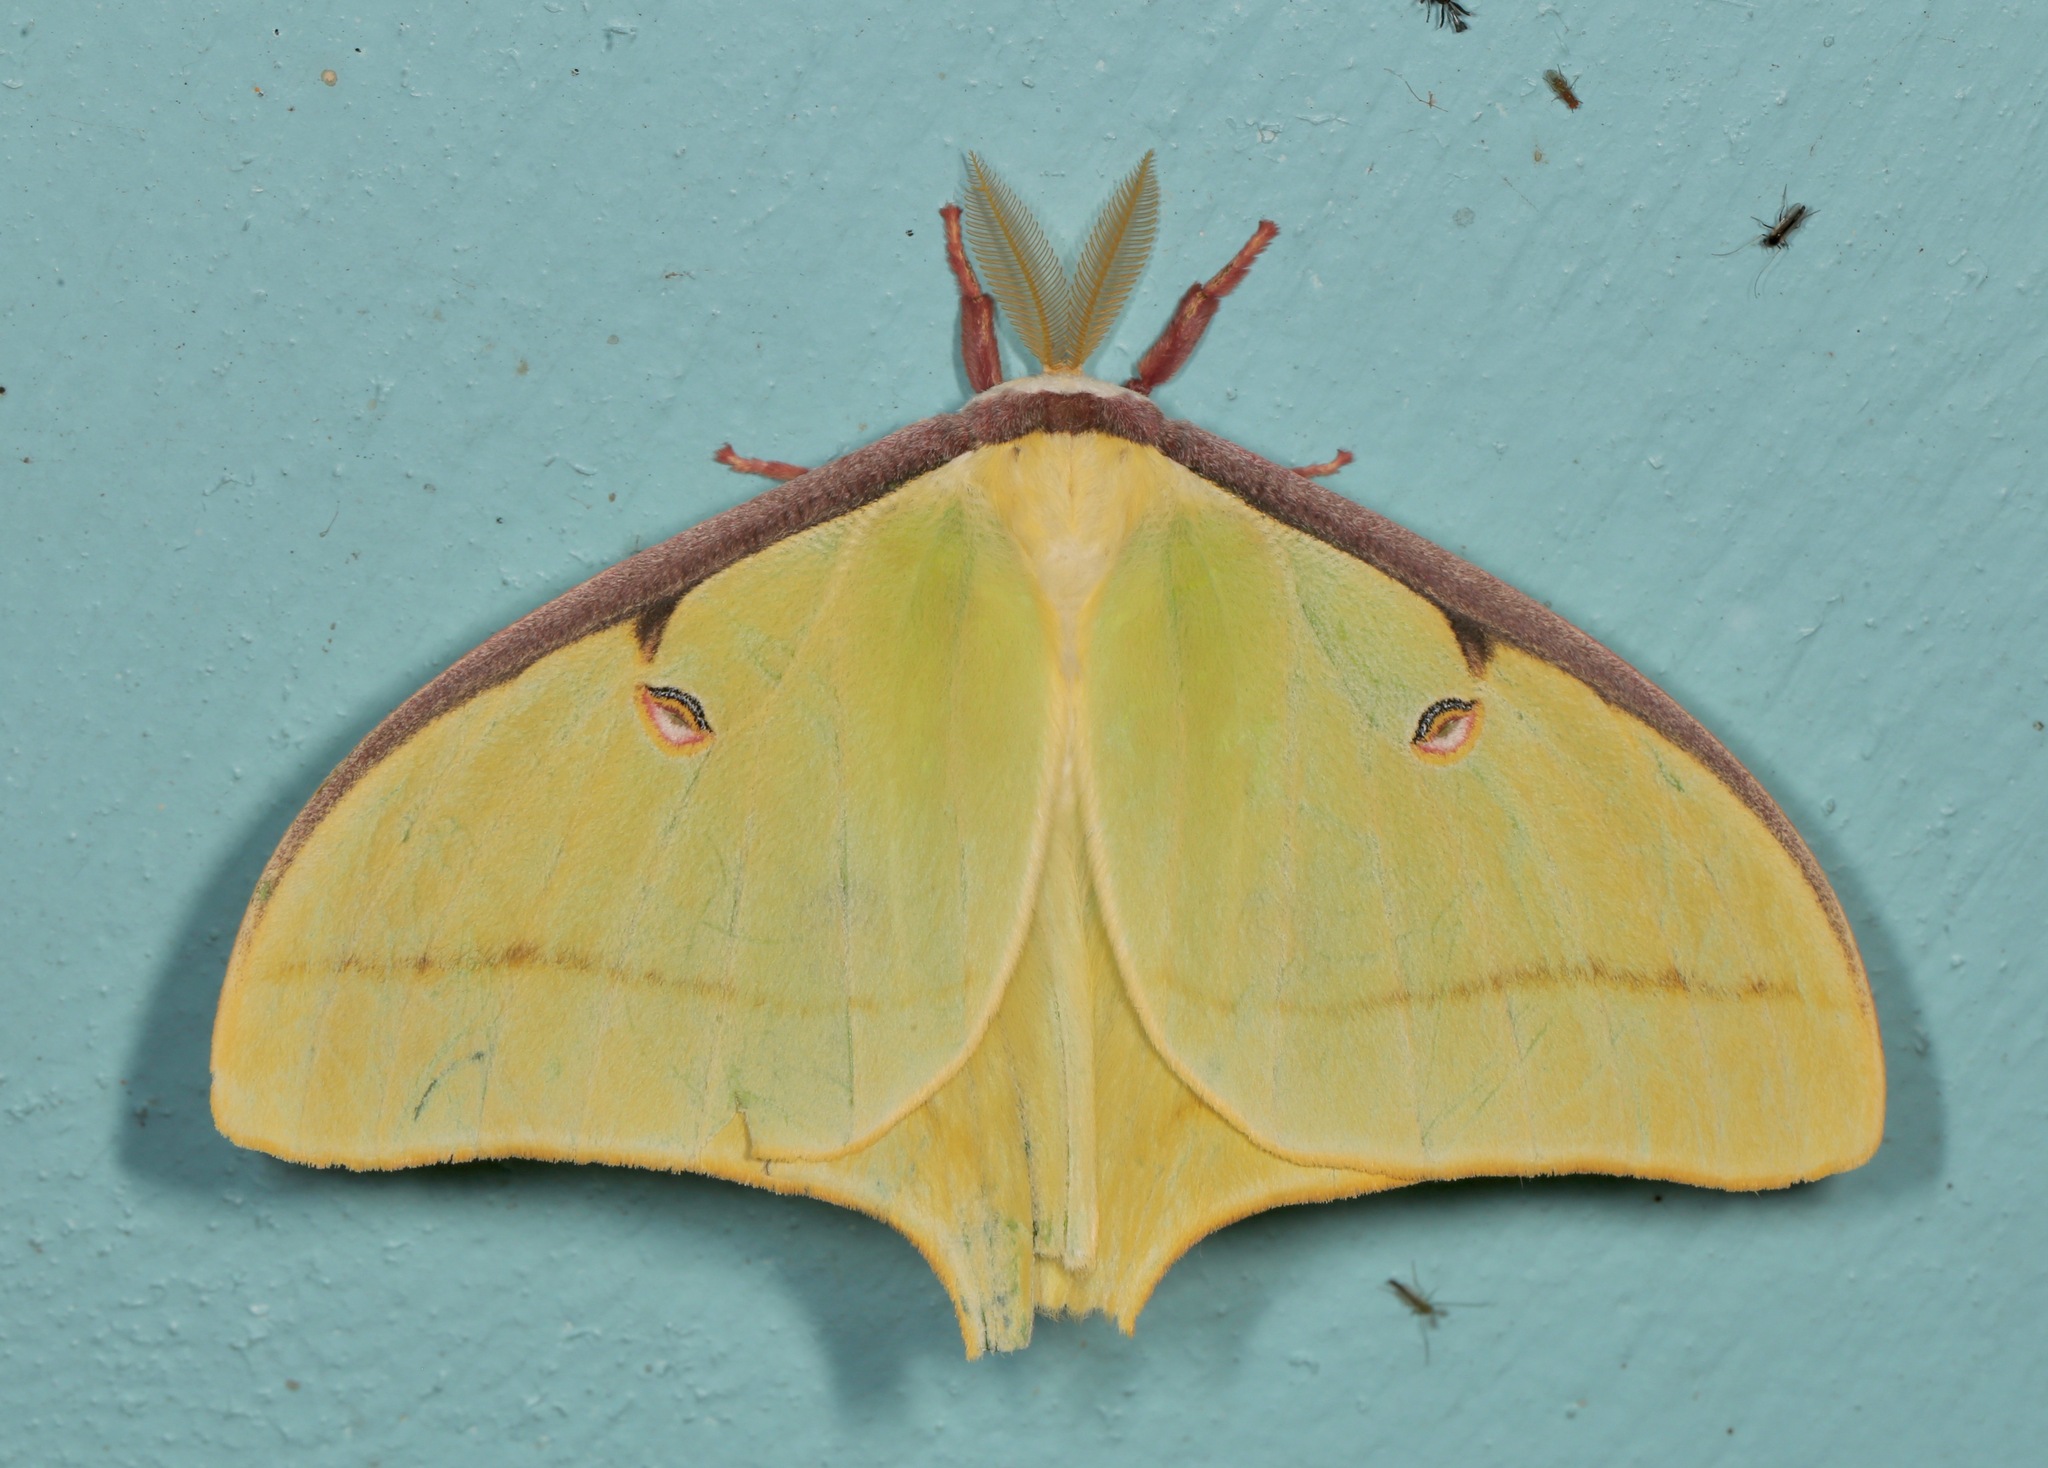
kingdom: Animalia
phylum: Arthropoda
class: Insecta
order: Lepidoptera
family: Saturniidae
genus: Actias
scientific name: Actias luna
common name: Luna moth
